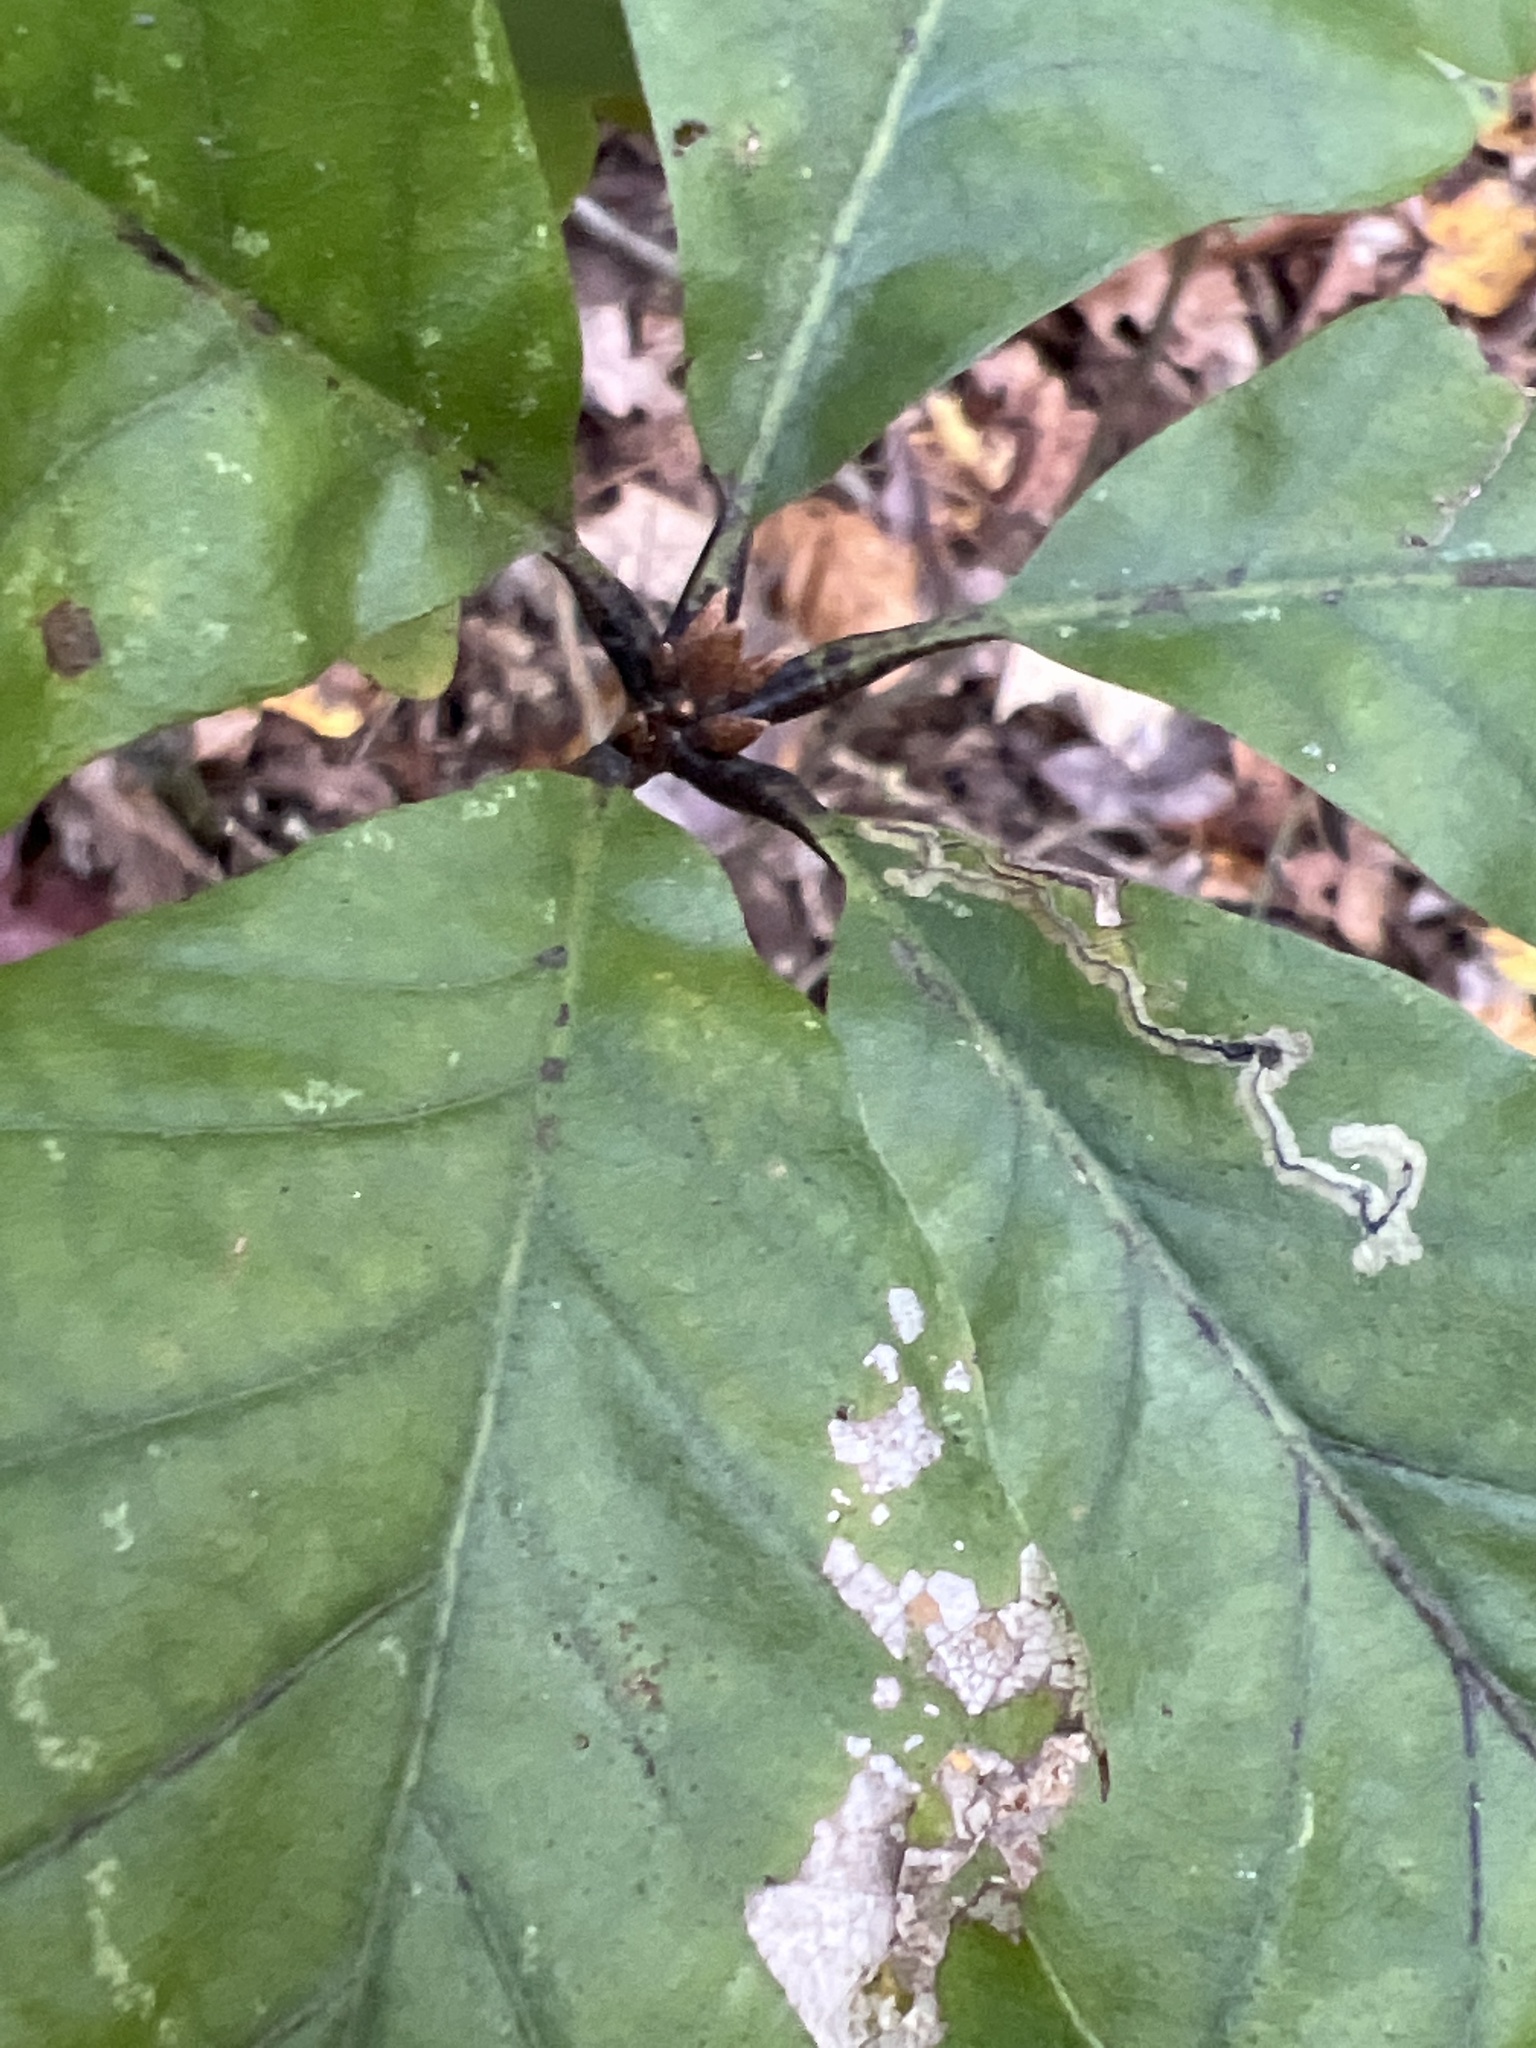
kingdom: Plantae
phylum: Tracheophyta
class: Magnoliopsida
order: Fagales
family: Fagaceae
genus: Quercus
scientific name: Quercus montana
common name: Chestnut oak
